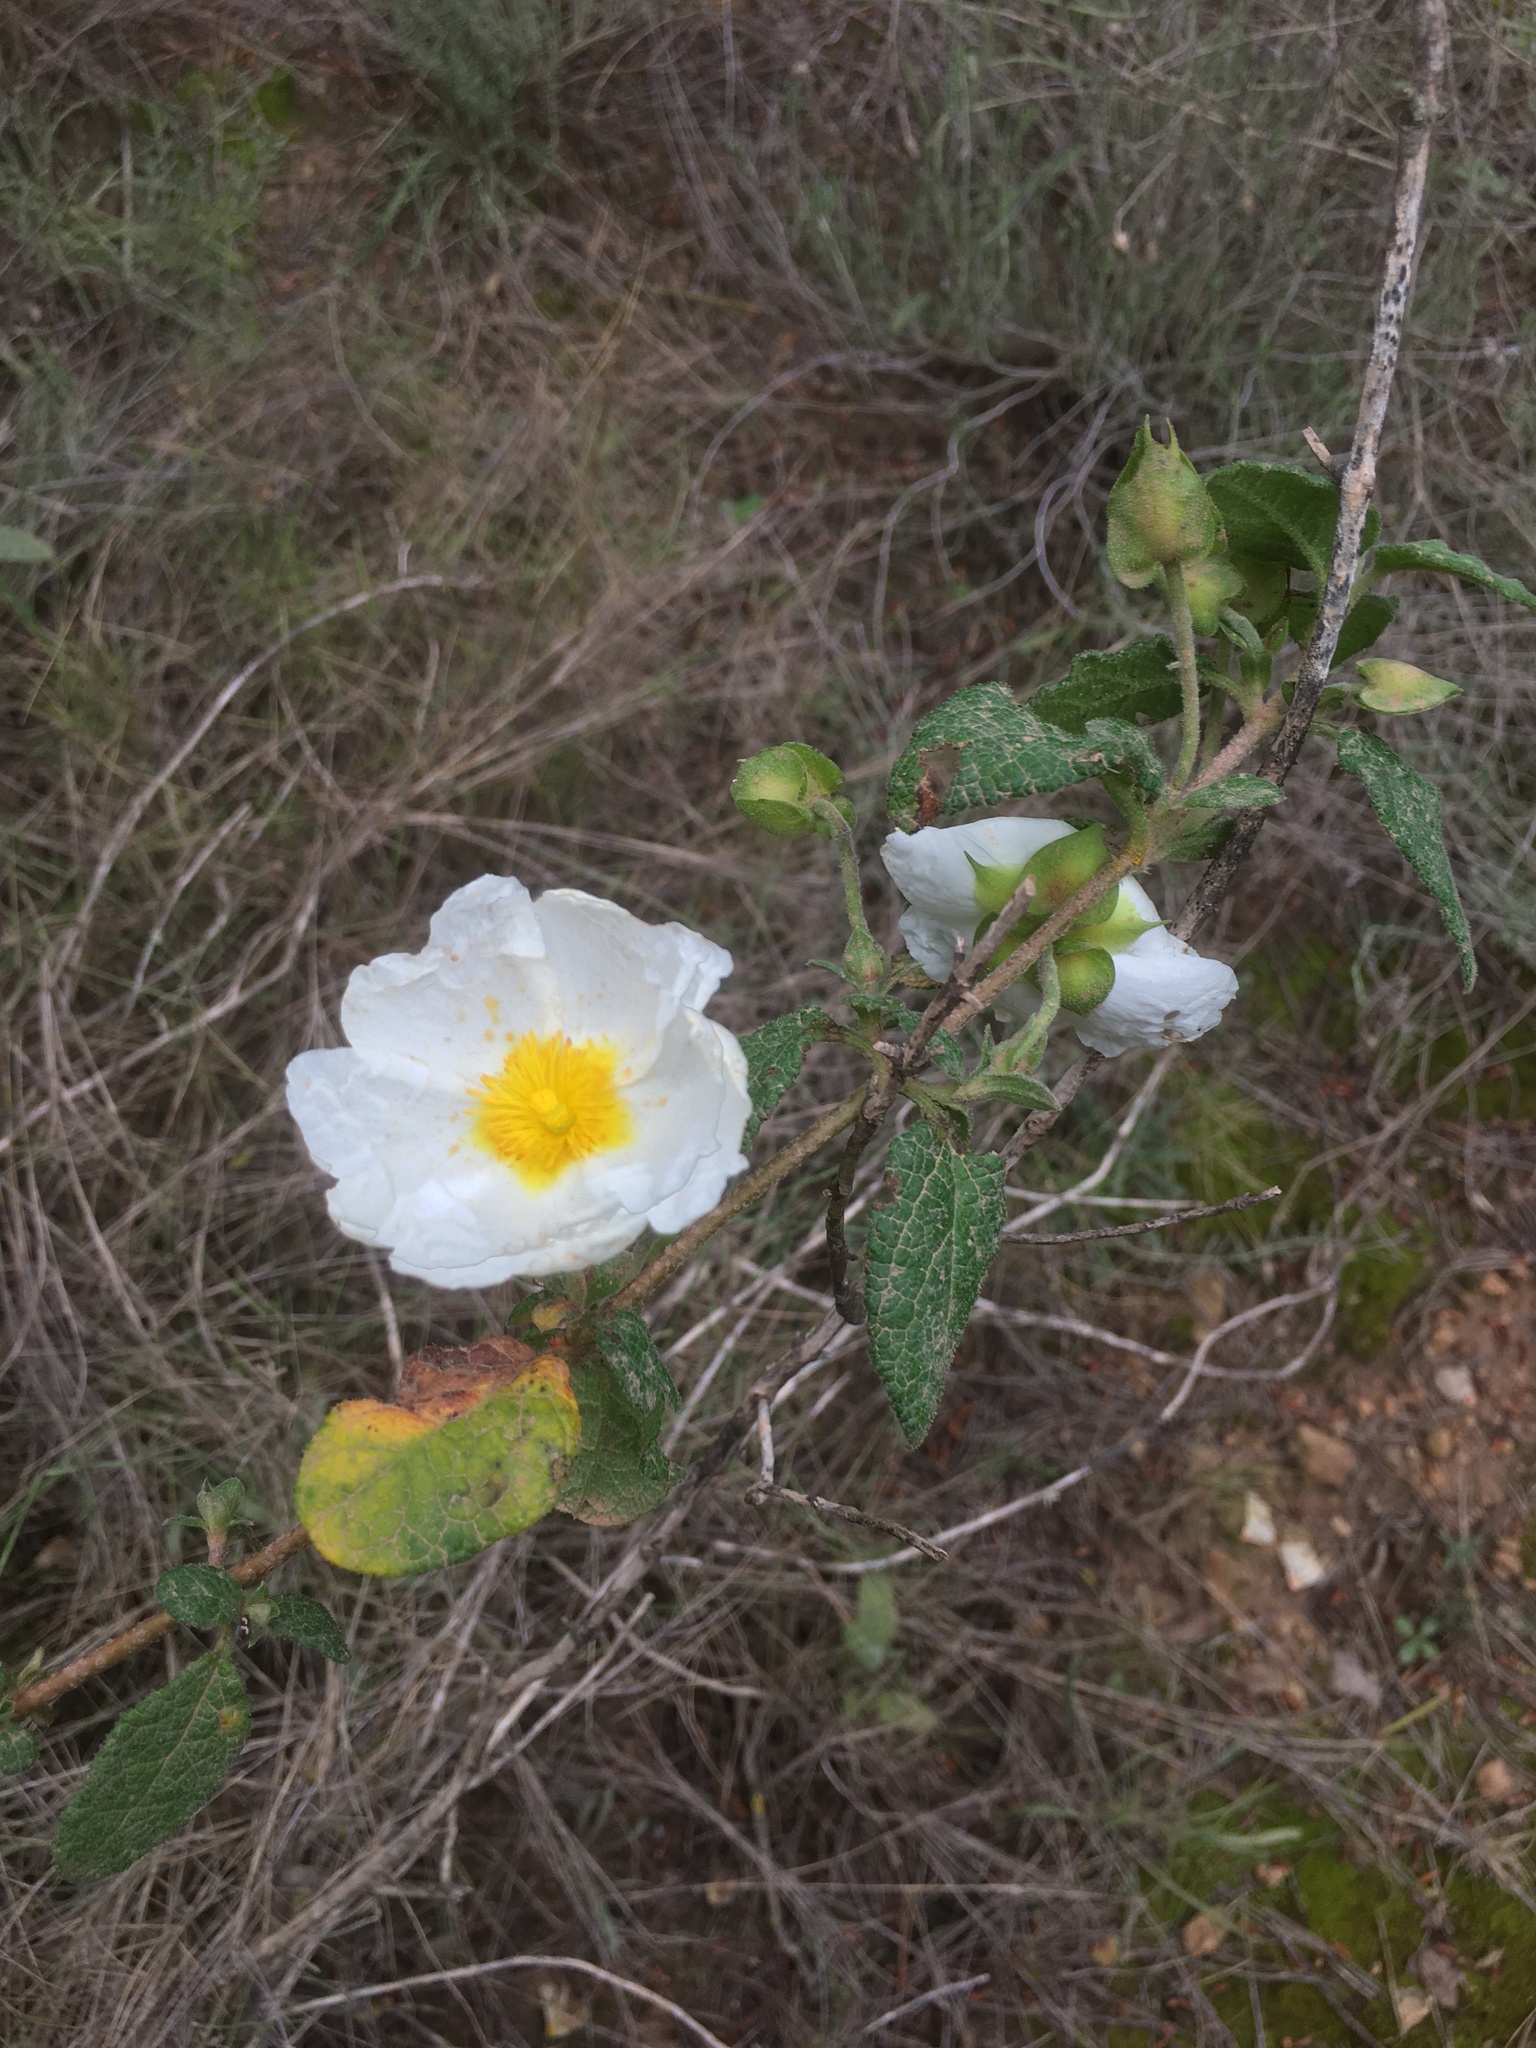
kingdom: Plantae
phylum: Tracheophyta
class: Magnoliopsida
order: Malvales
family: Cistaceae
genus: Cistus
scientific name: Cistus salviifolius
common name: Salvia cistus
